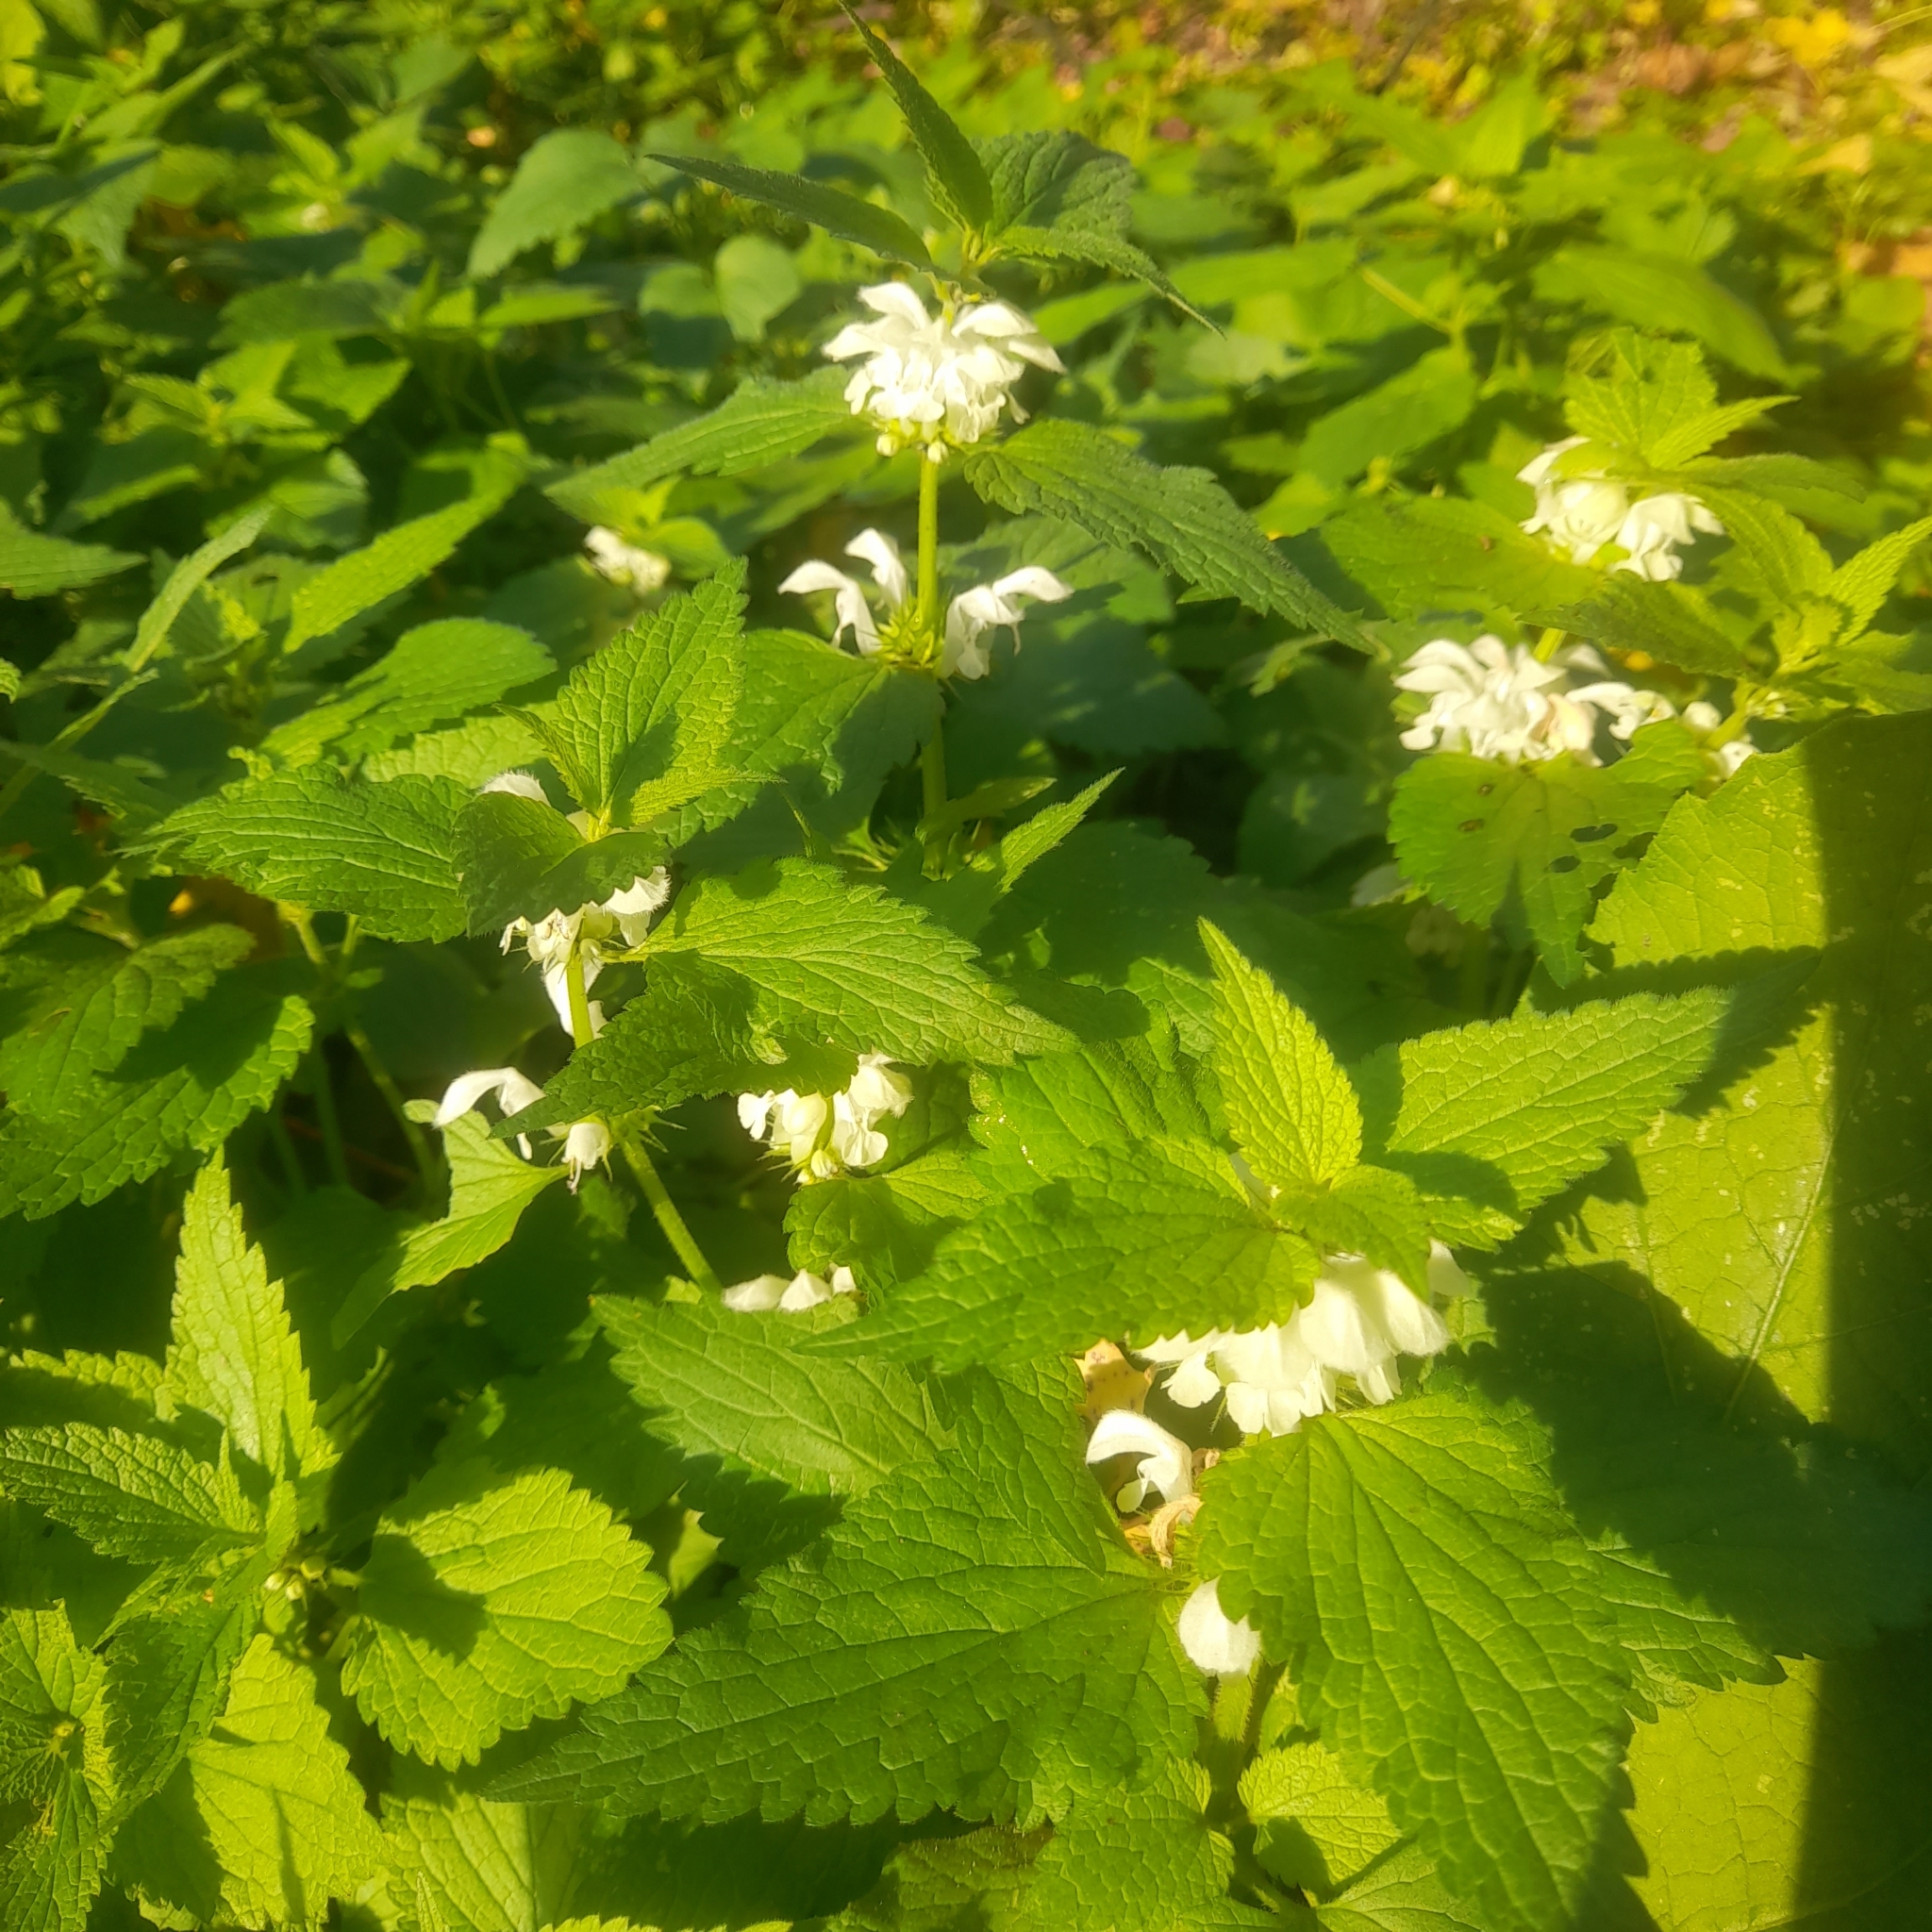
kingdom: Plantae
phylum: Tracheophyta
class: Magnoliopsida
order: Lamiales
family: Lamiaceae
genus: Lamium
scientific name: Lamium album
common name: White dead-nettle
